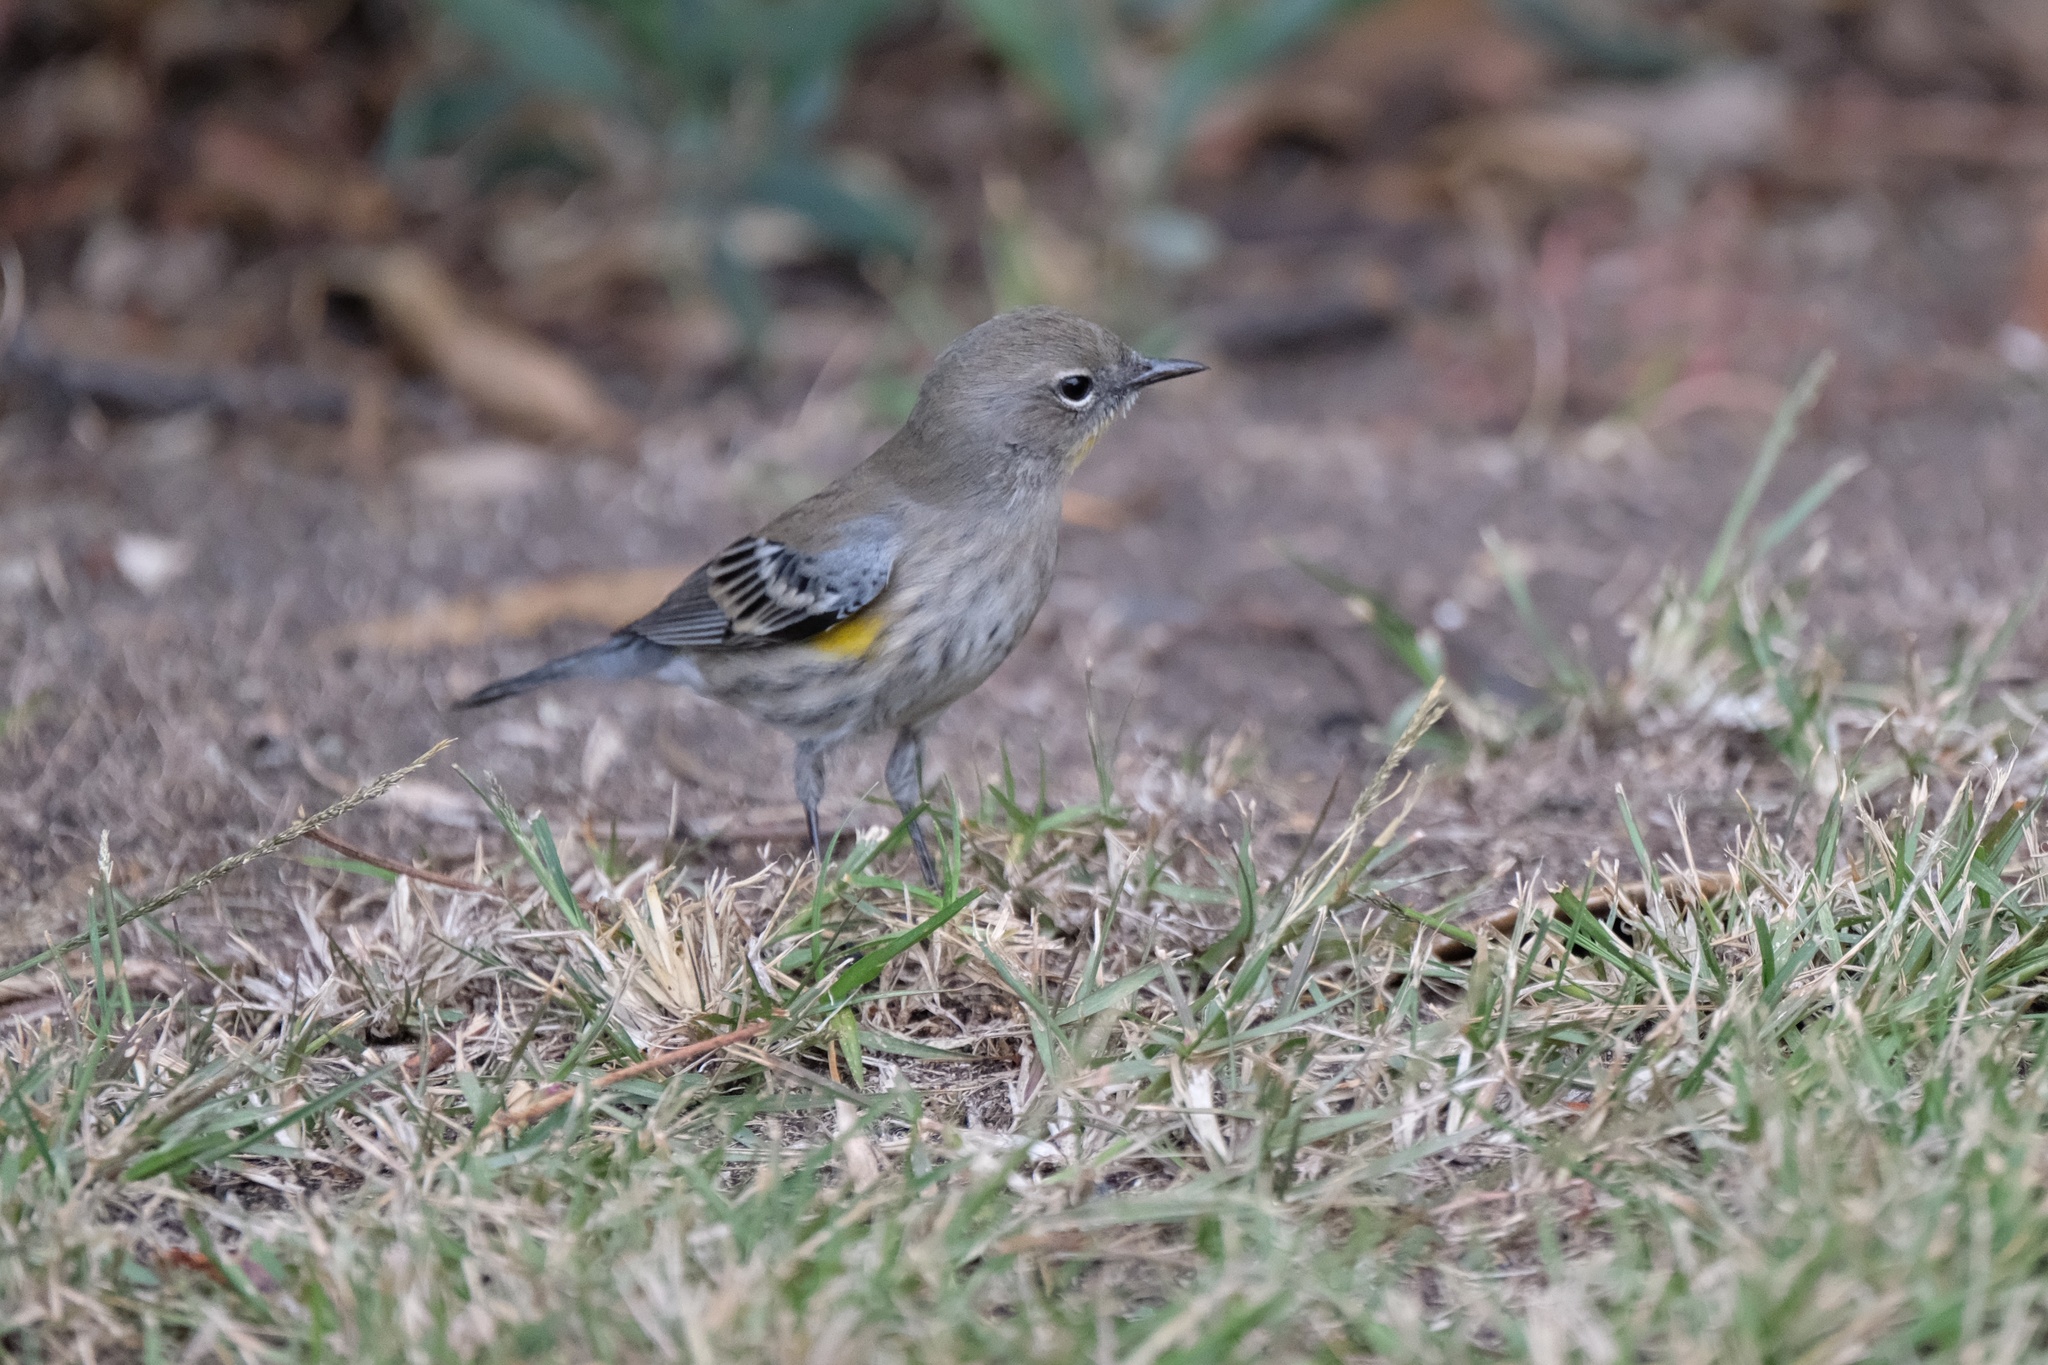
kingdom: Animalia
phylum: Chordata
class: Aves
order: Passeriformes
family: Parulidae
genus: Setophaga
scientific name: Setophaga coronata
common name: Myrtle warbler
